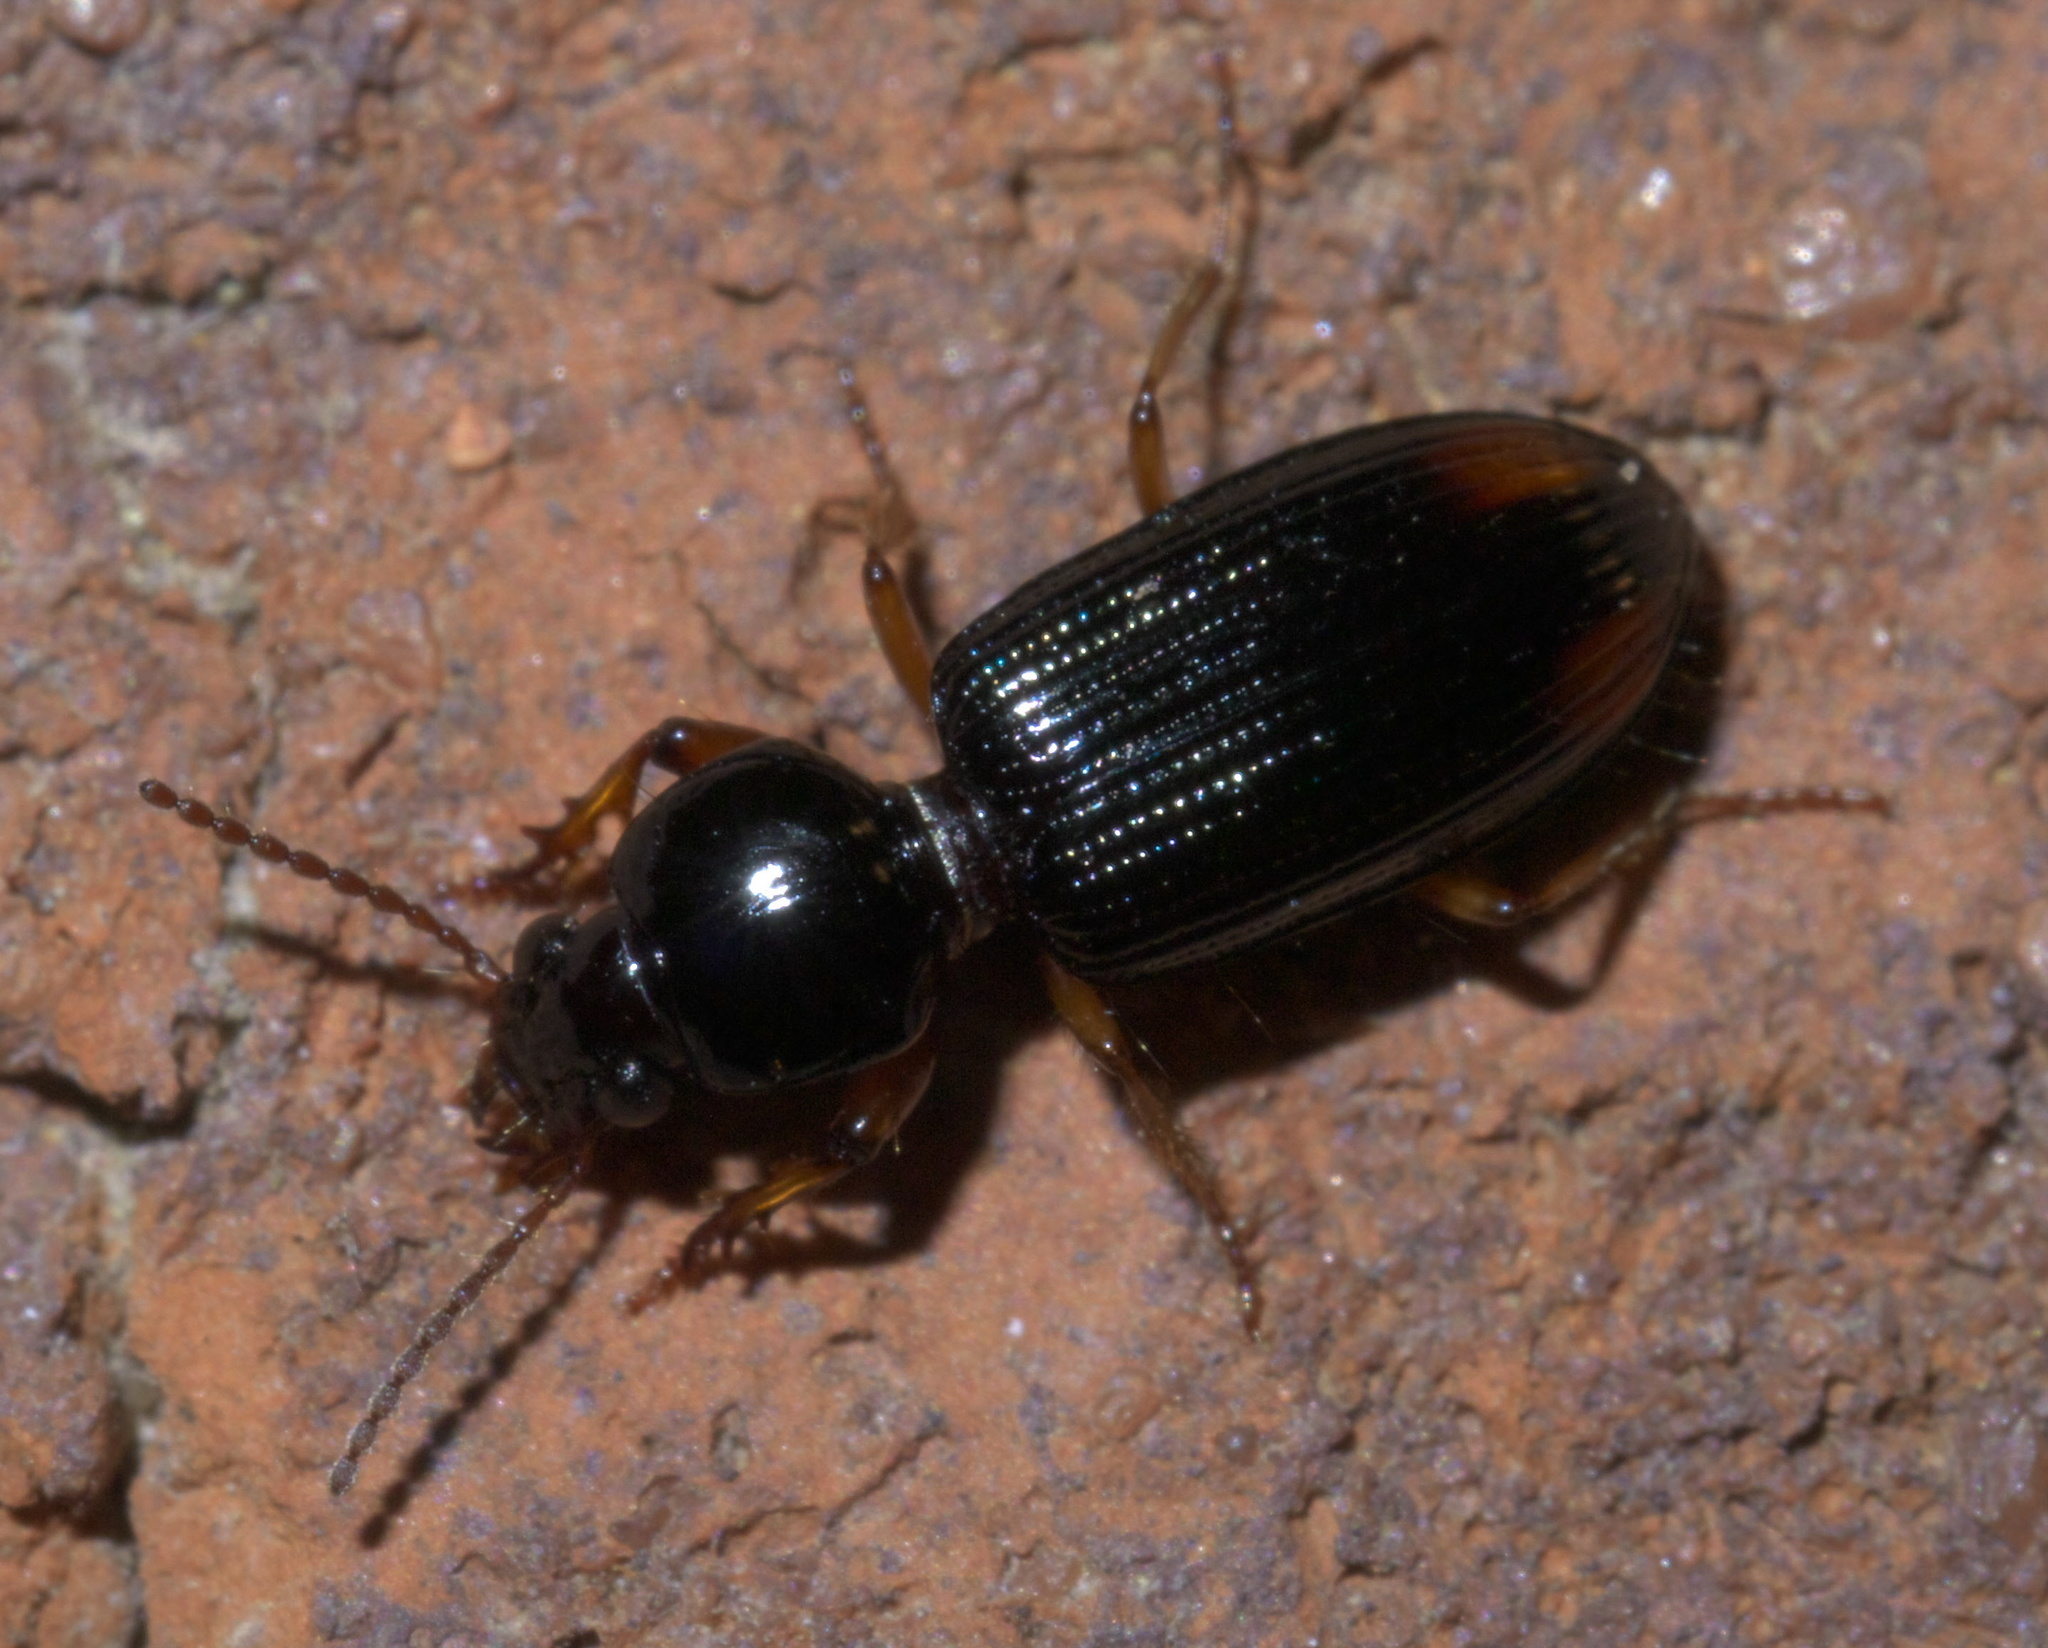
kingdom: Animalia
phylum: Arthropoda
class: Insecta
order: Coleoptera
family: Carabidae
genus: Aspidoglossa
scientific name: Aspidoglossa subangulata
